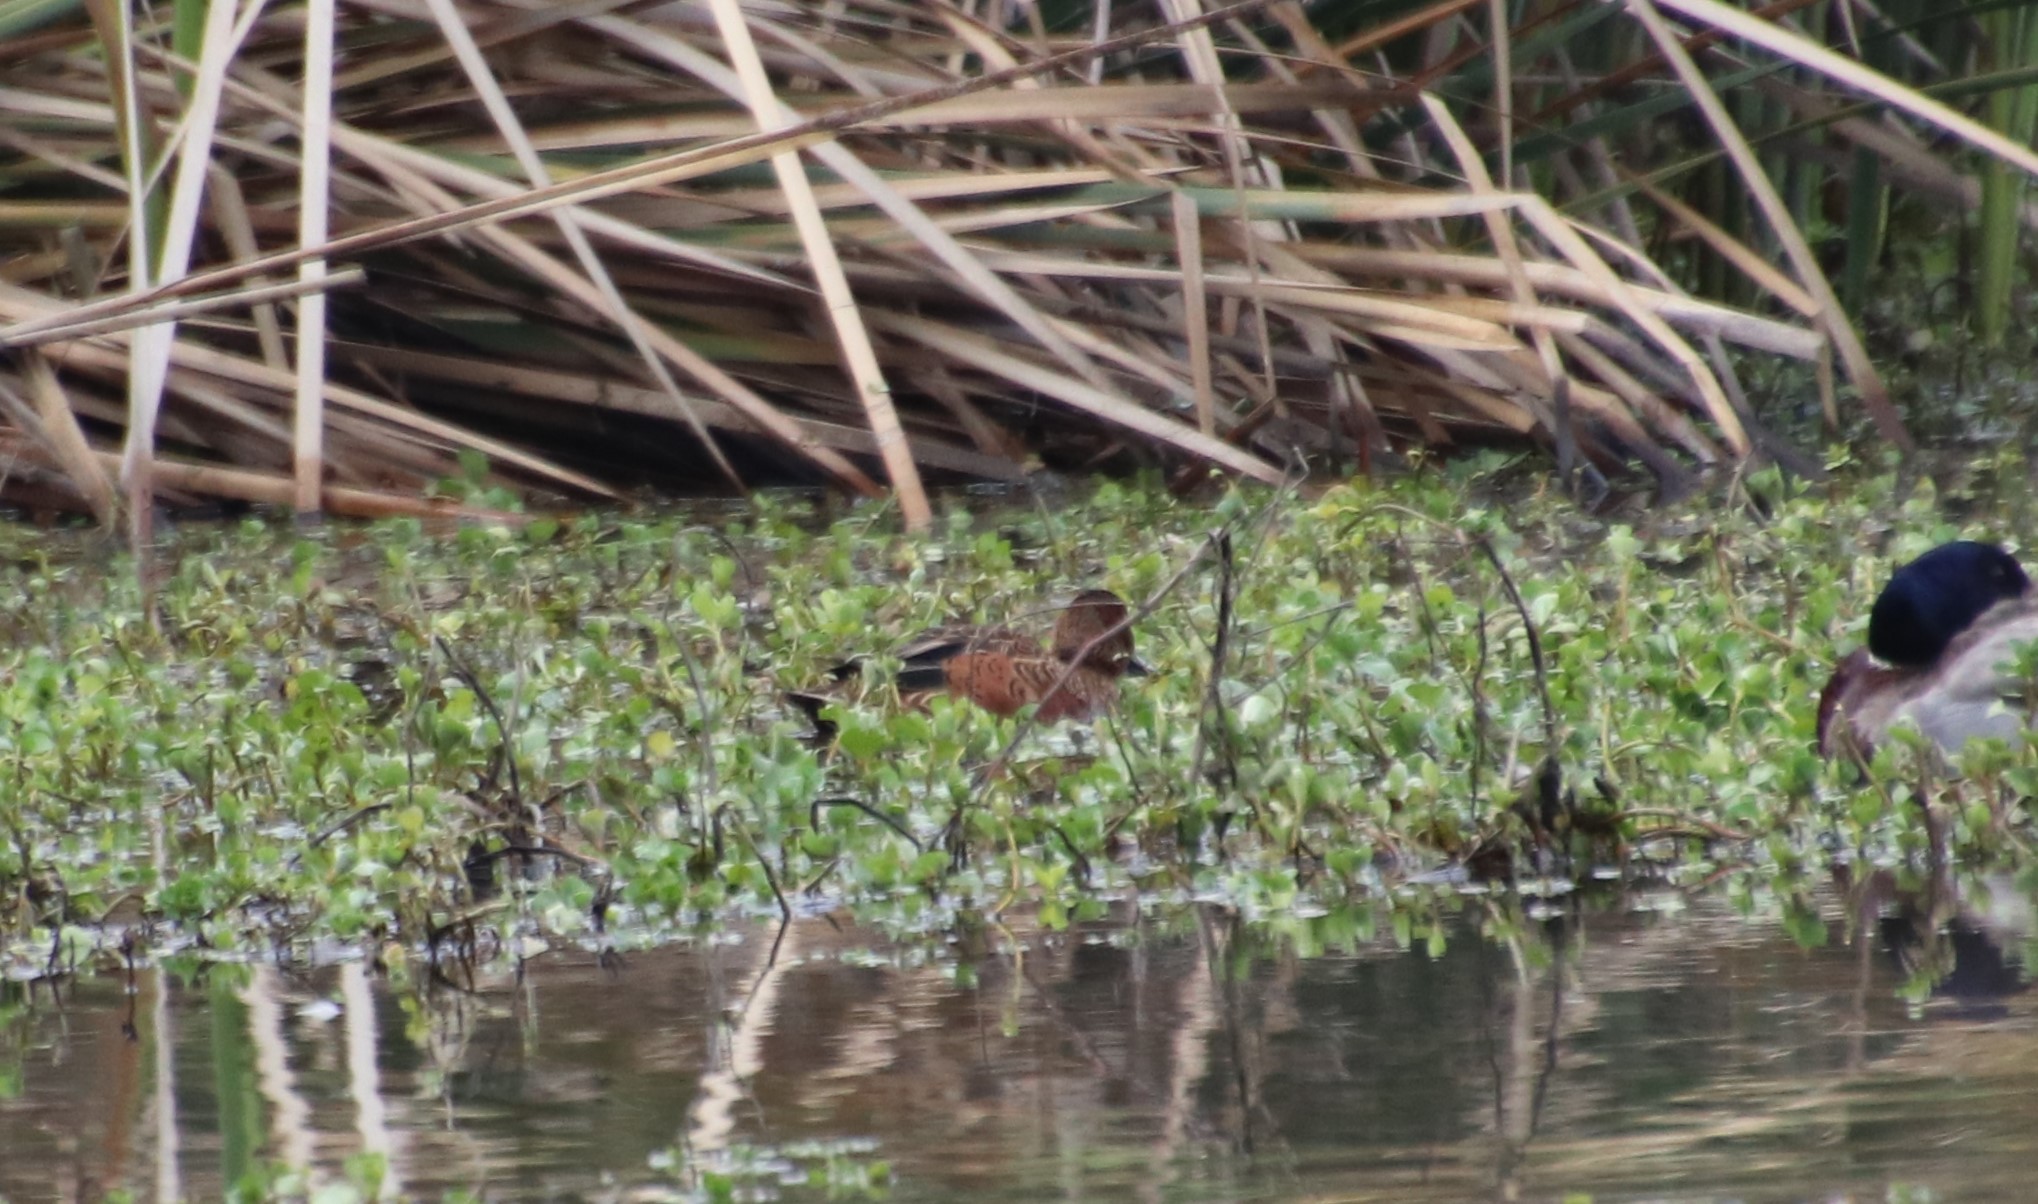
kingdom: Animalia
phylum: Chordata
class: Aves
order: Anseriformes
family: Anatidae
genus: Spatula
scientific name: Spatula cyanoptera
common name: Cinnamon teal
